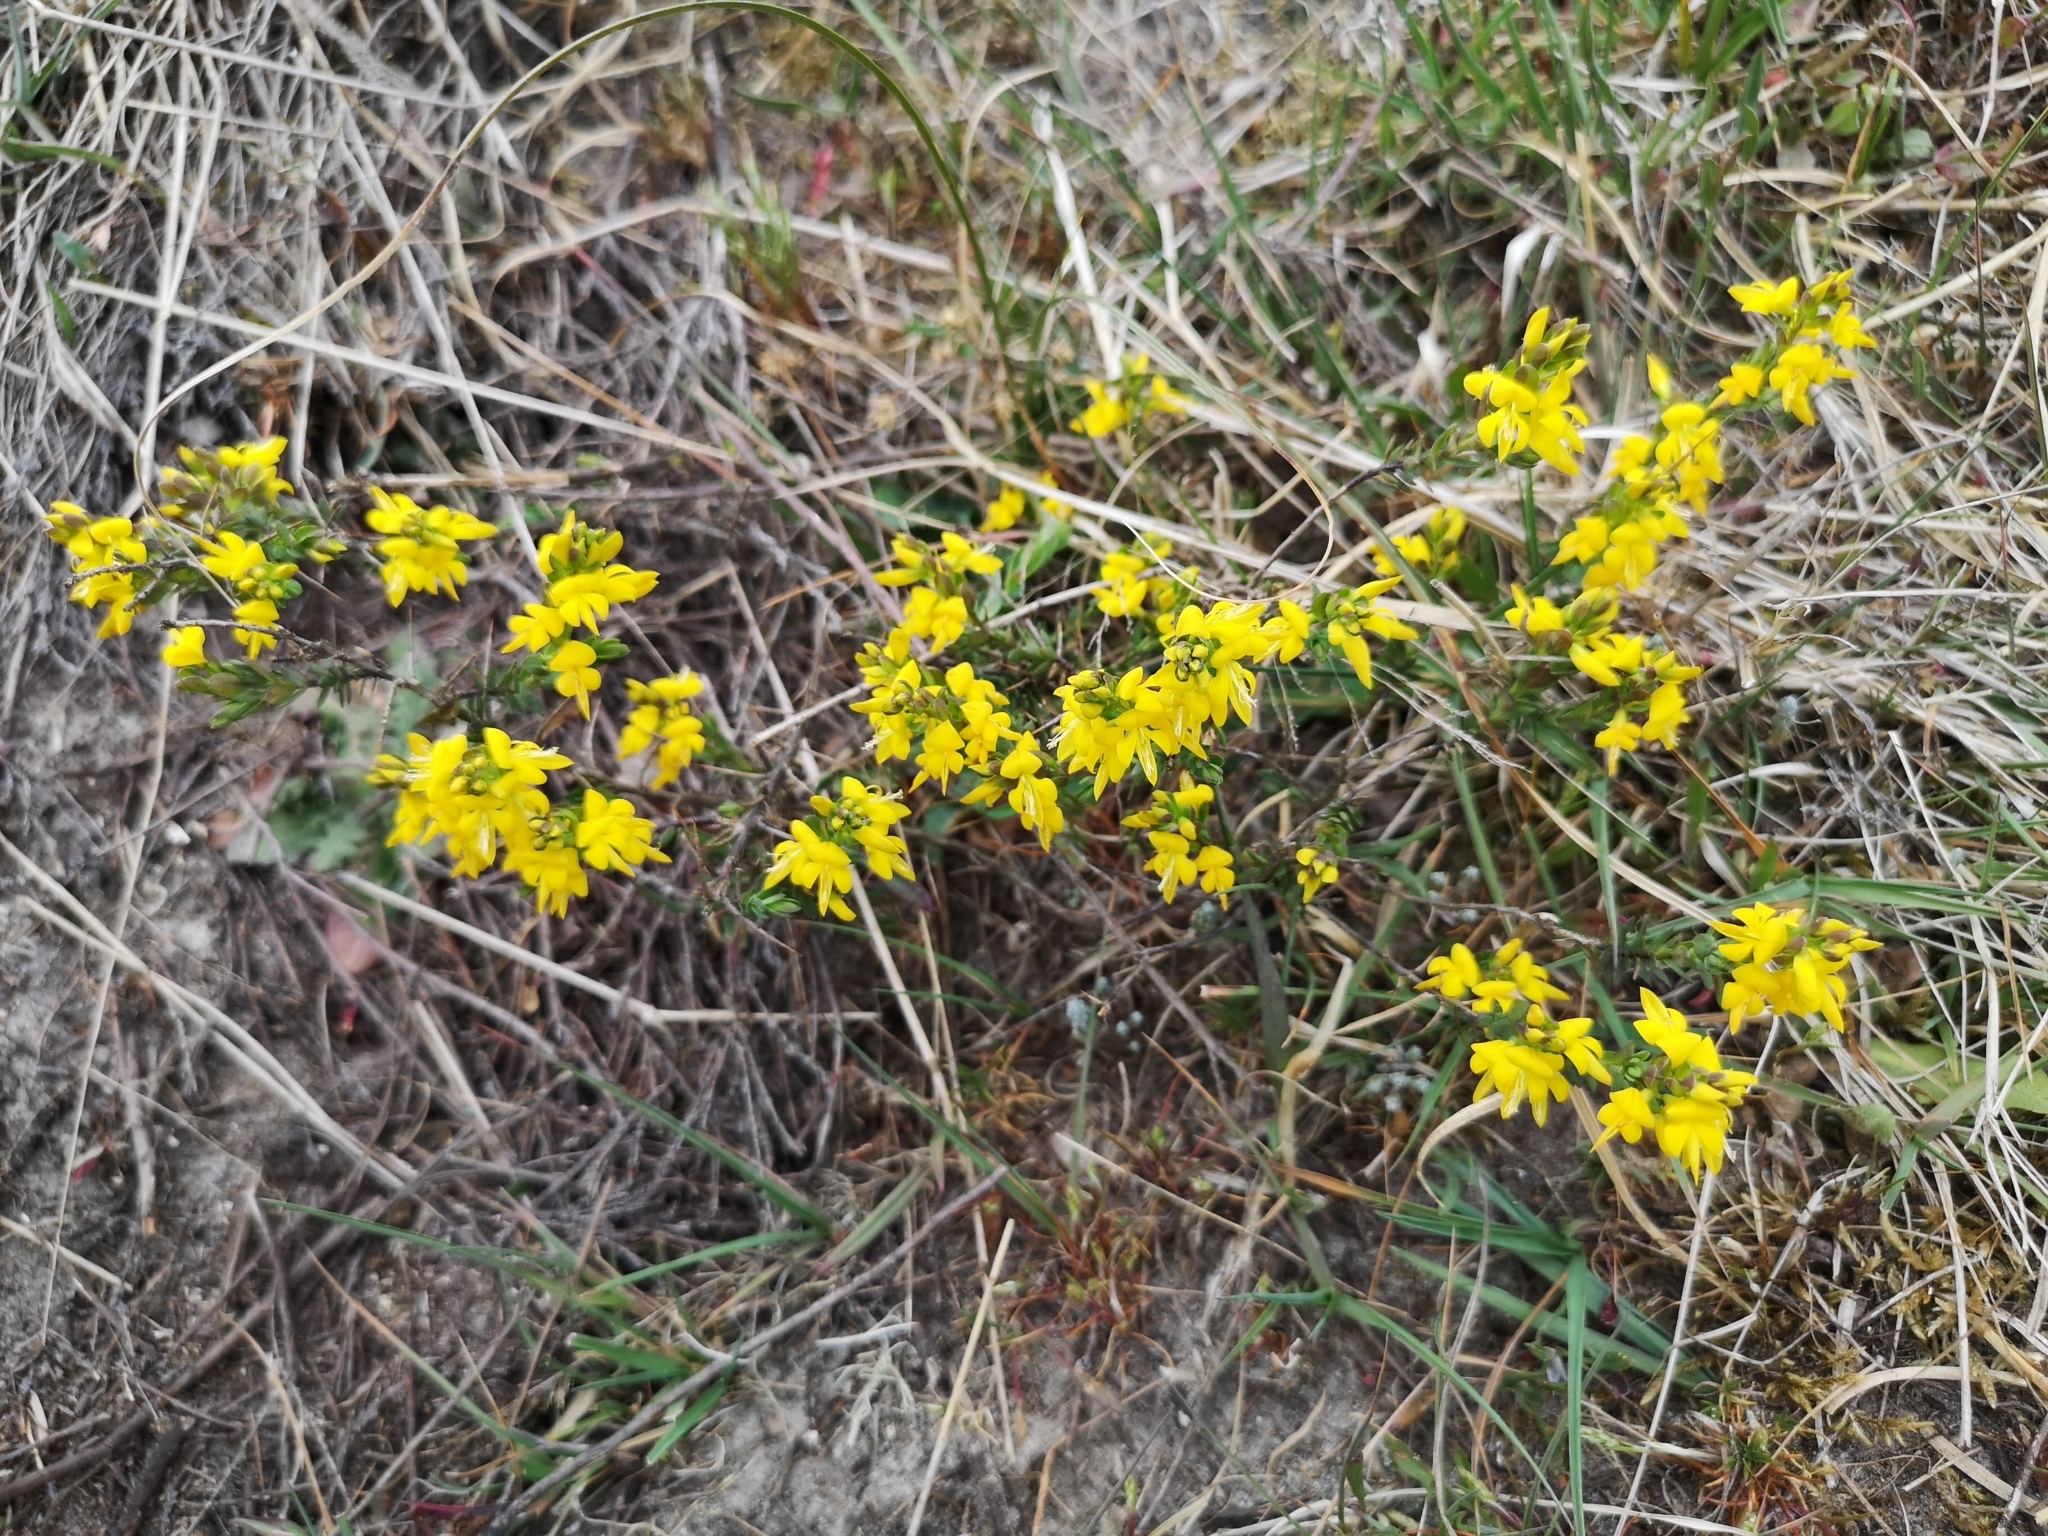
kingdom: Plantae
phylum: Tracheophyta
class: Magnoliopsida
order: Fabales
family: Fabaceae
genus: Genista
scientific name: Genista anglica
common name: Petty whin
